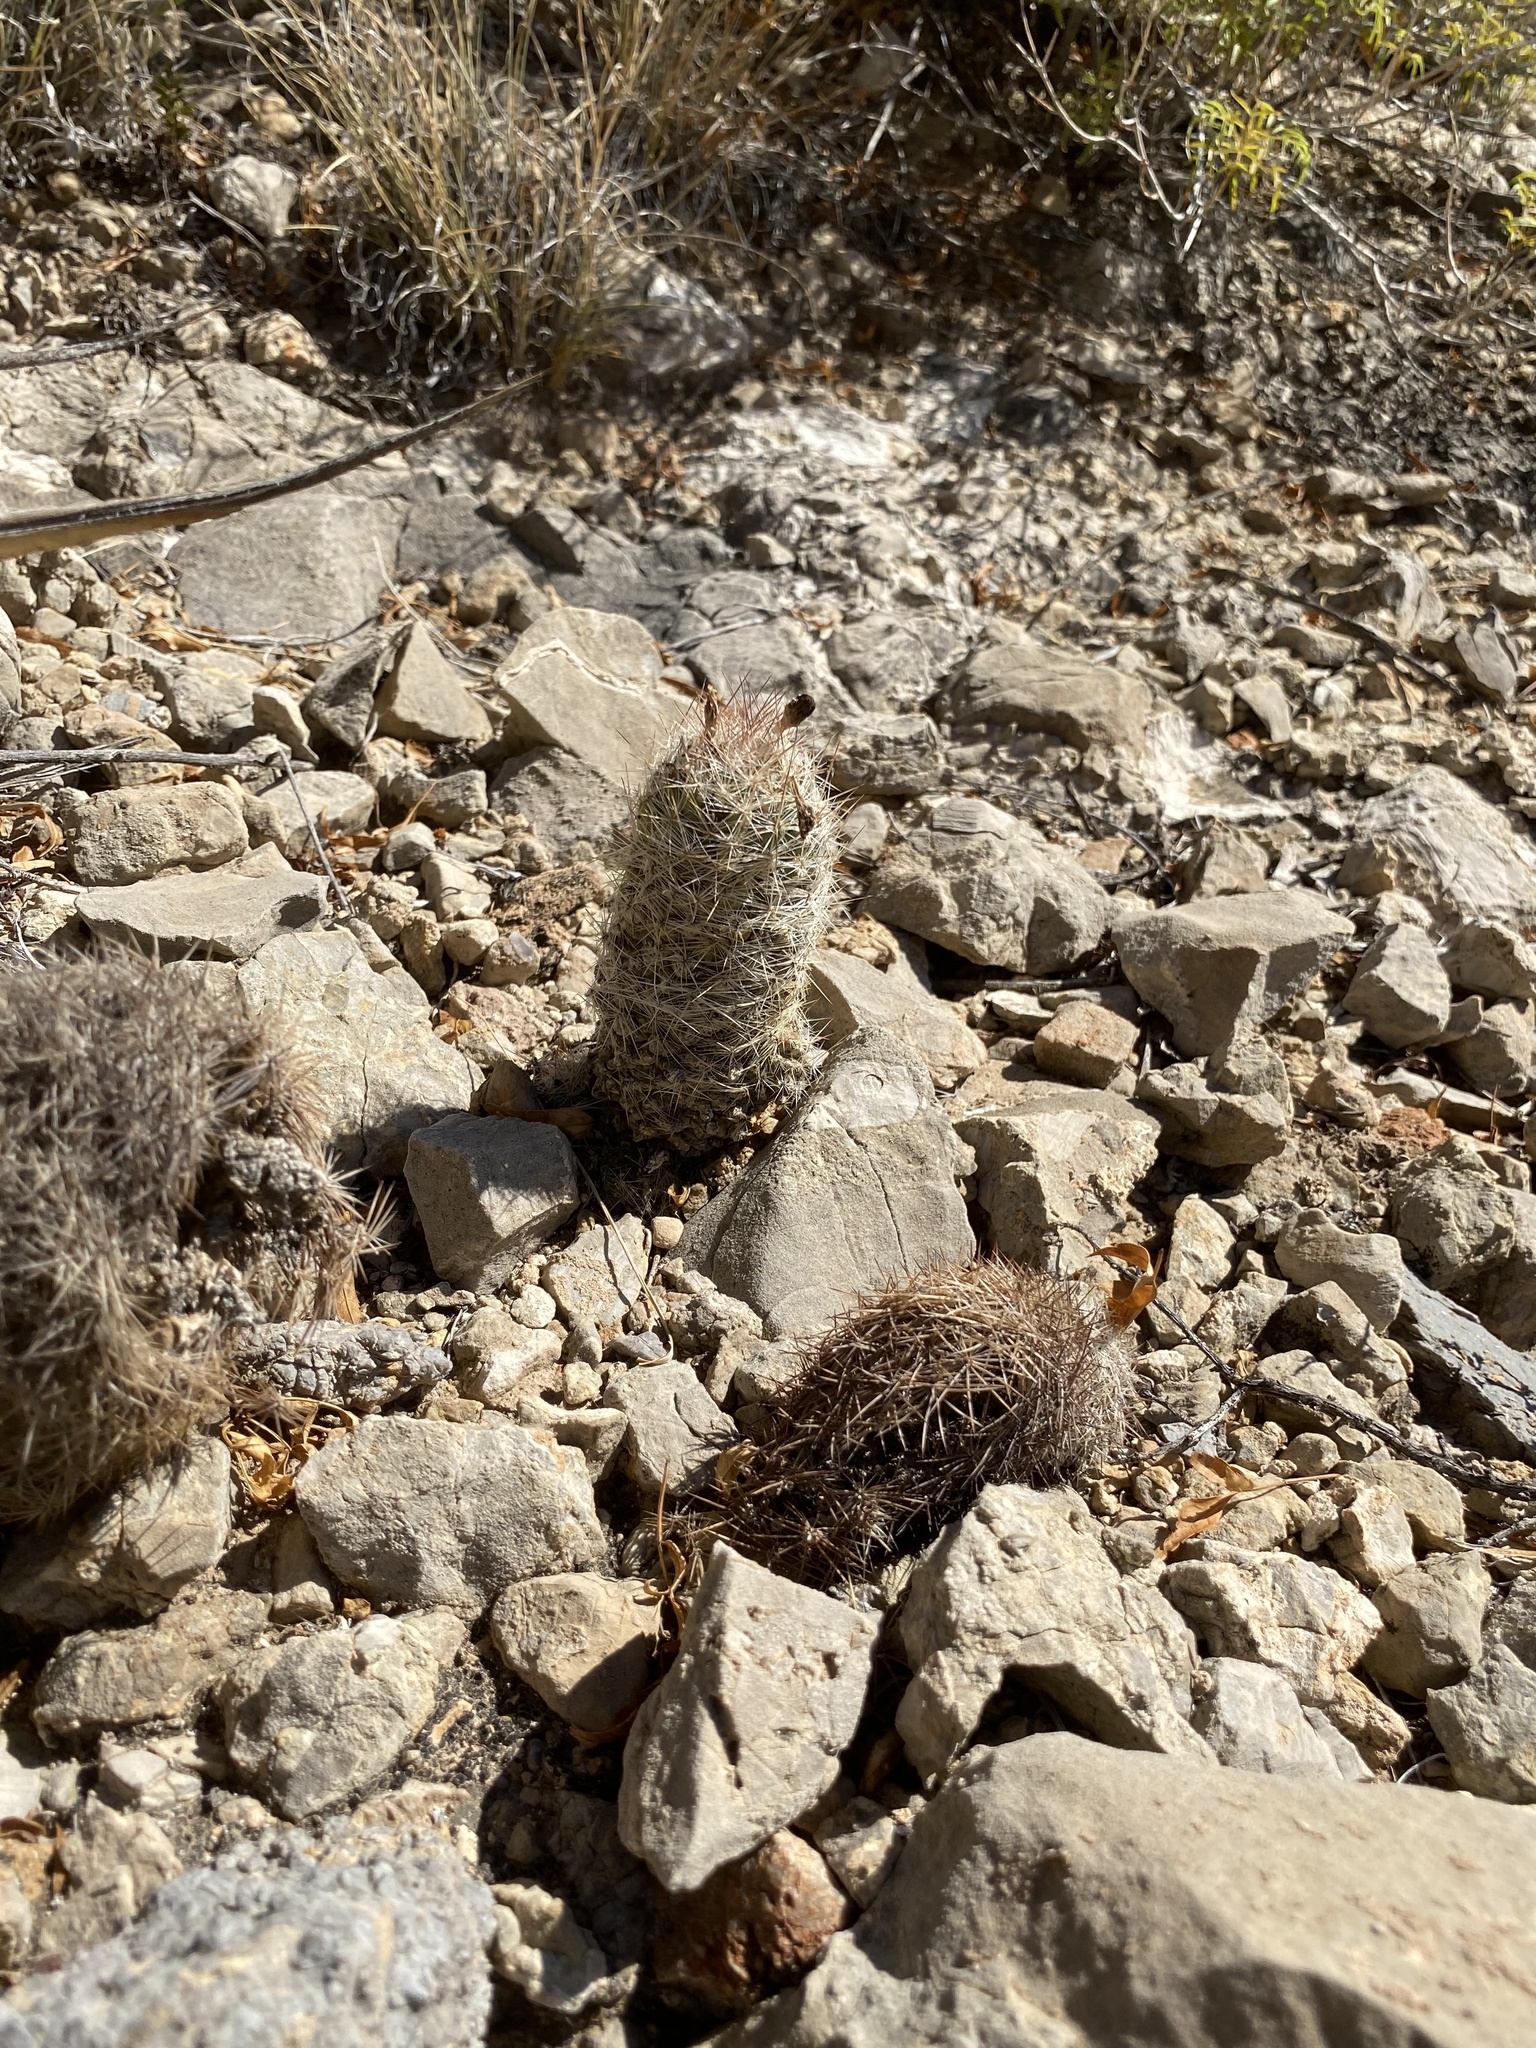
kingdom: Plantae
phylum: Tracheophyta
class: Magnoliopsida
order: Caryophyllales
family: Cactaceae
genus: Pelecyphora
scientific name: Pelecyphora tuberculosa
